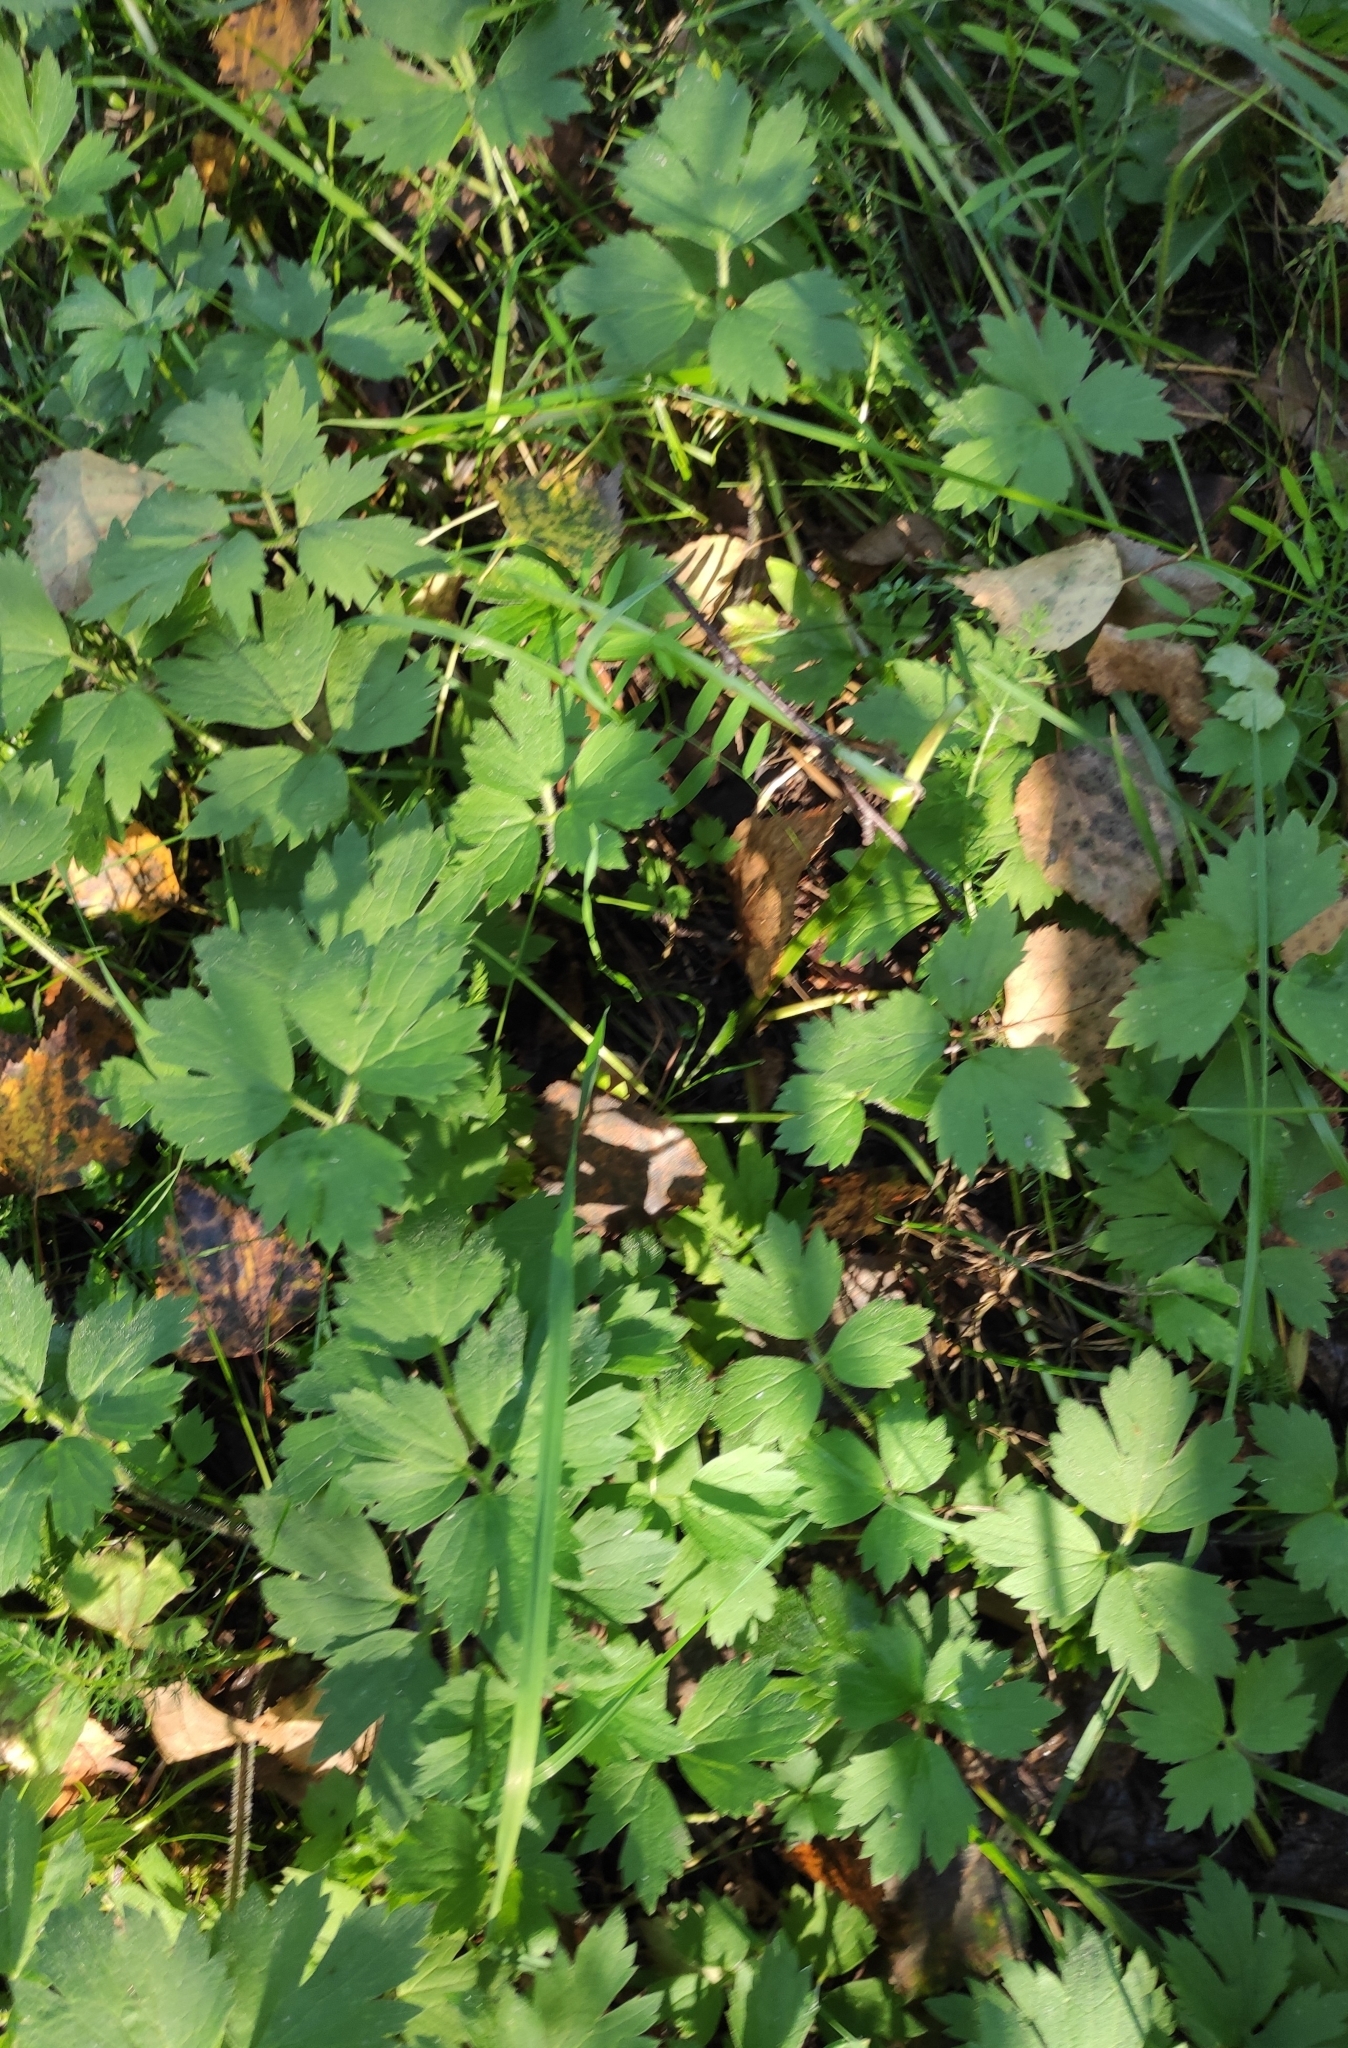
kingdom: Plantae
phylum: Tracheophyta
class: Magnoliopsida
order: Ranunculales
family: Ranunculaceae
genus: Ranunculus
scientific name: Ranunculus repens
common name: Creeping buttercup
